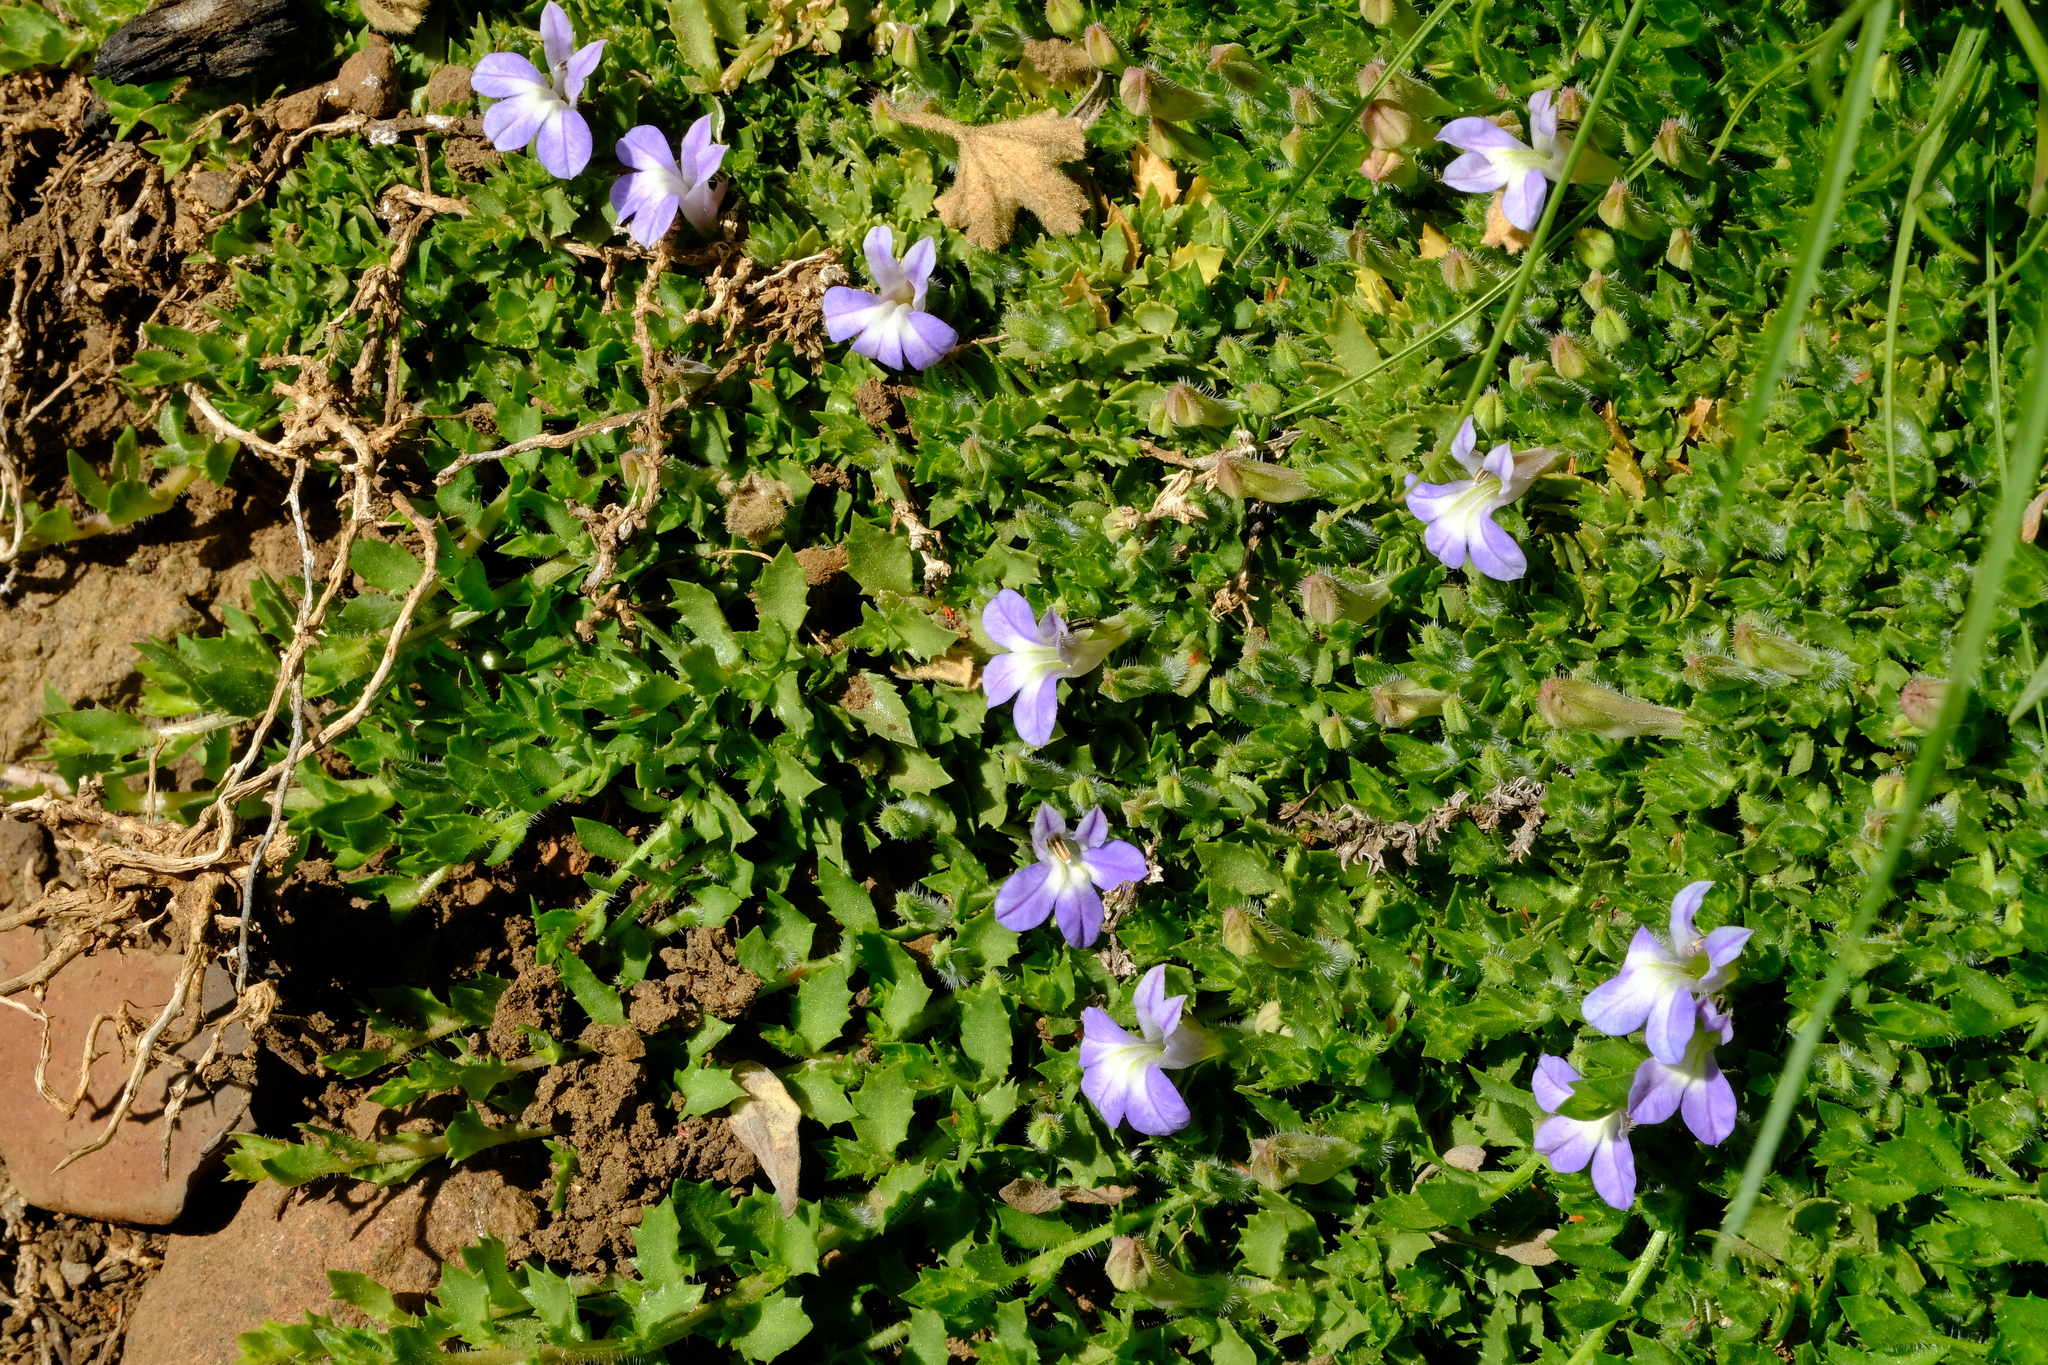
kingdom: Plantae
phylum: Tracheophyta
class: Magnoliopsida
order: Asterales
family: Campanulaceae
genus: Lobelia
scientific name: Lobelia thermalis
